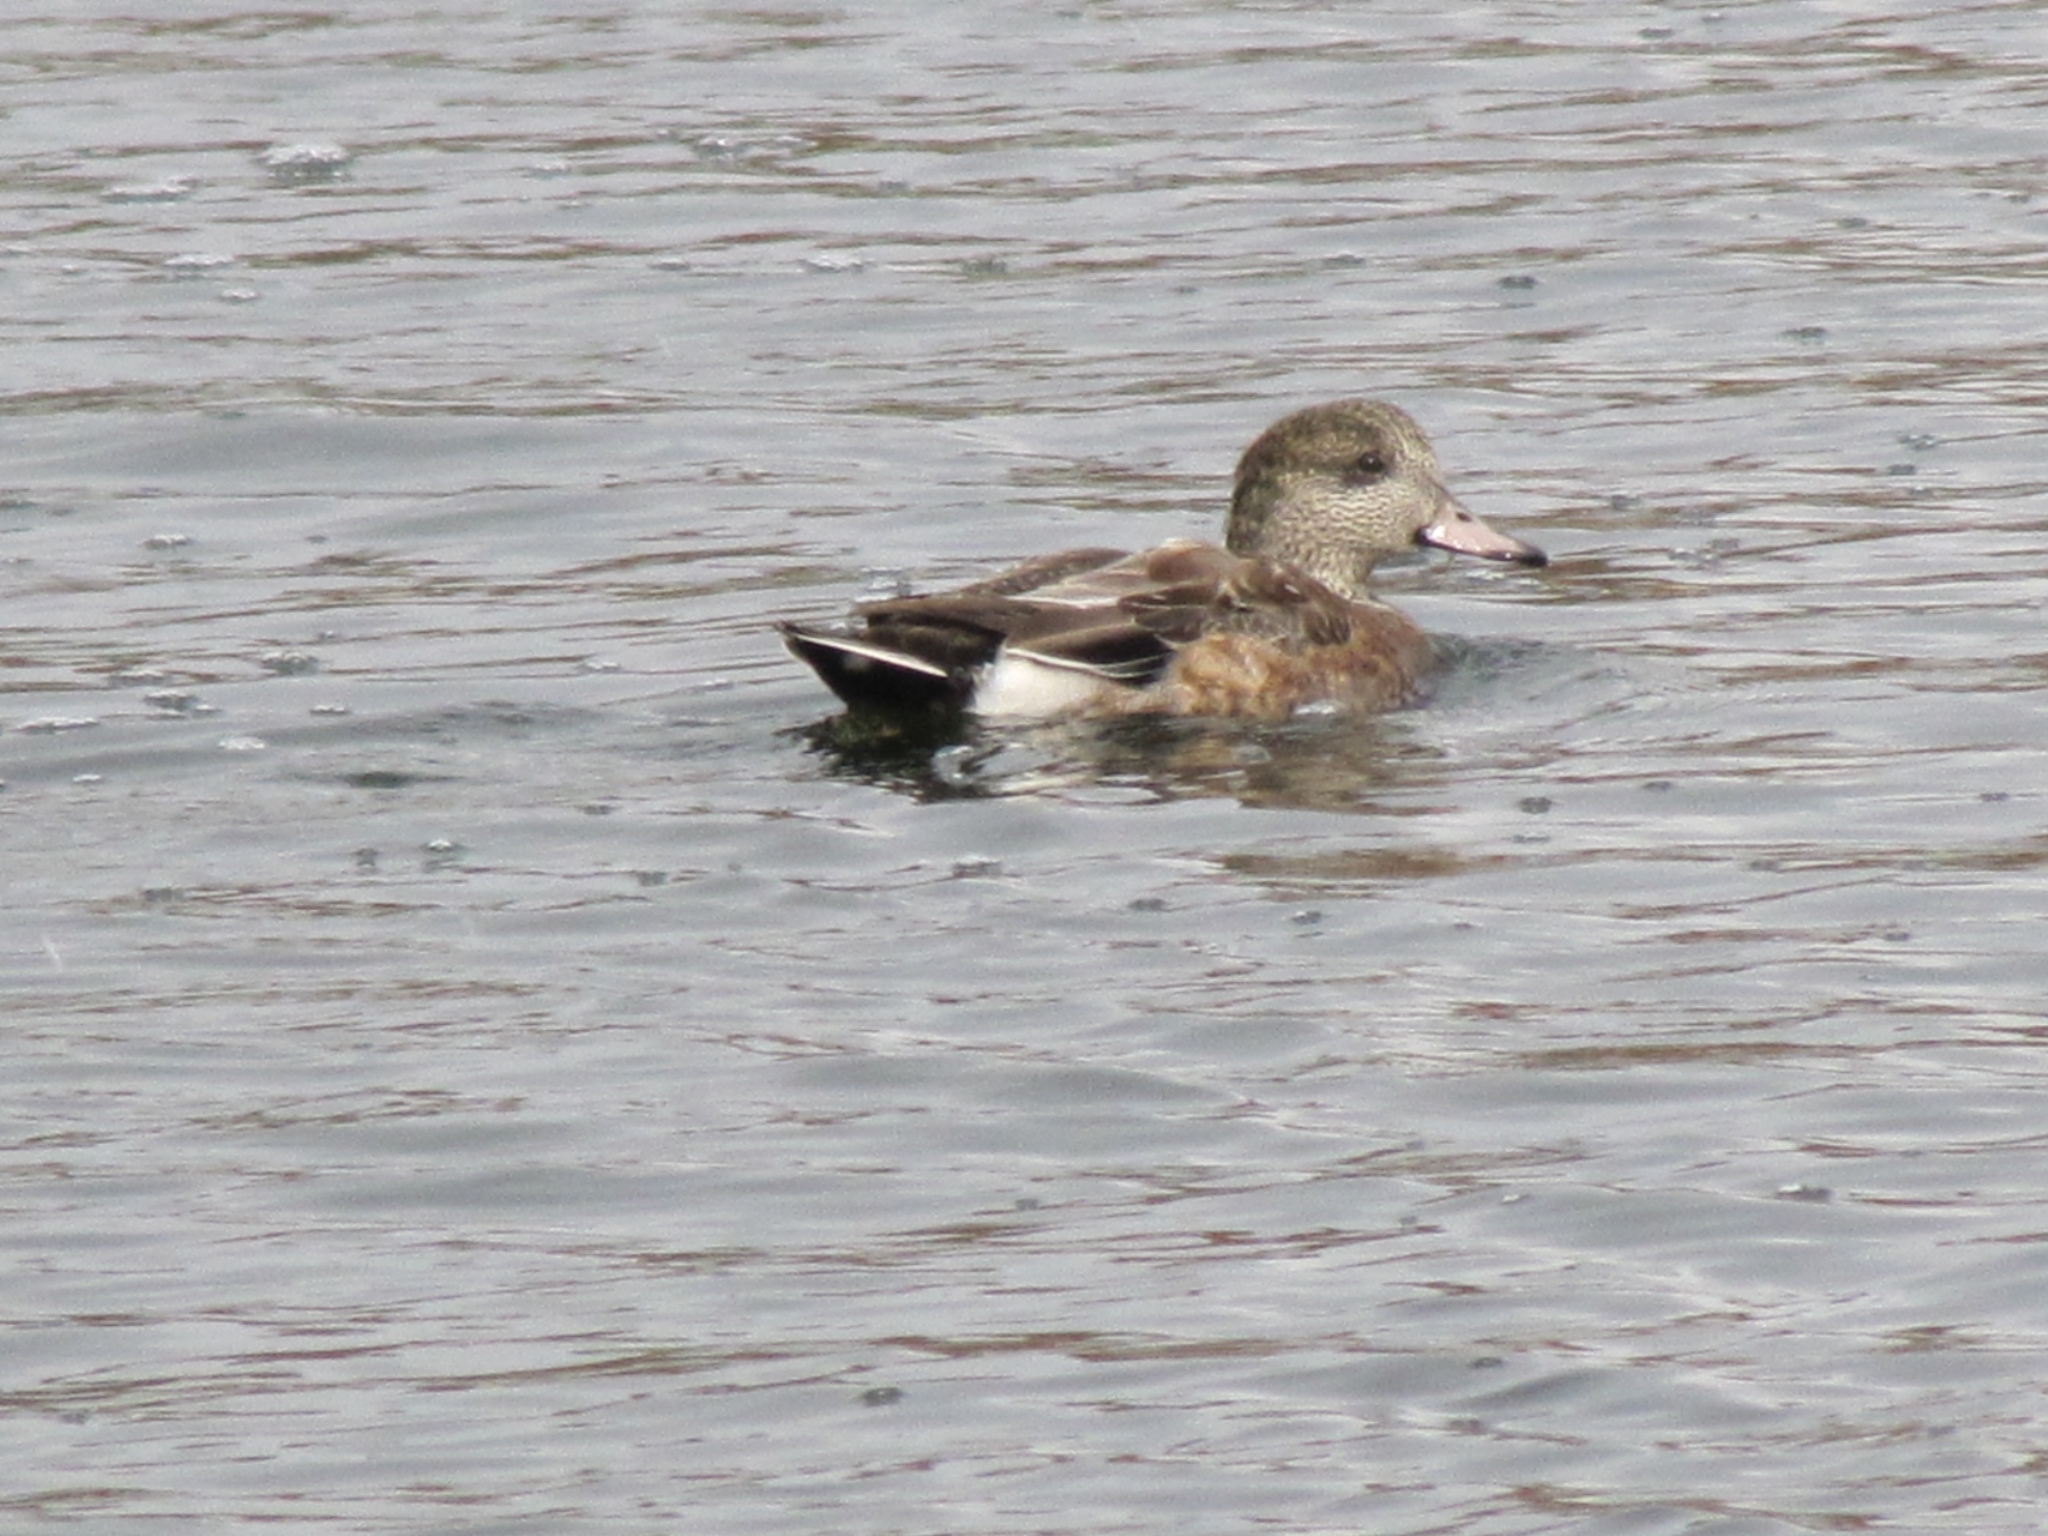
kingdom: Animalia
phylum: Chordata
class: Aves
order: Anseriformes
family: Anatidae
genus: Mareca
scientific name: Mareca americana
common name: American wigeon
